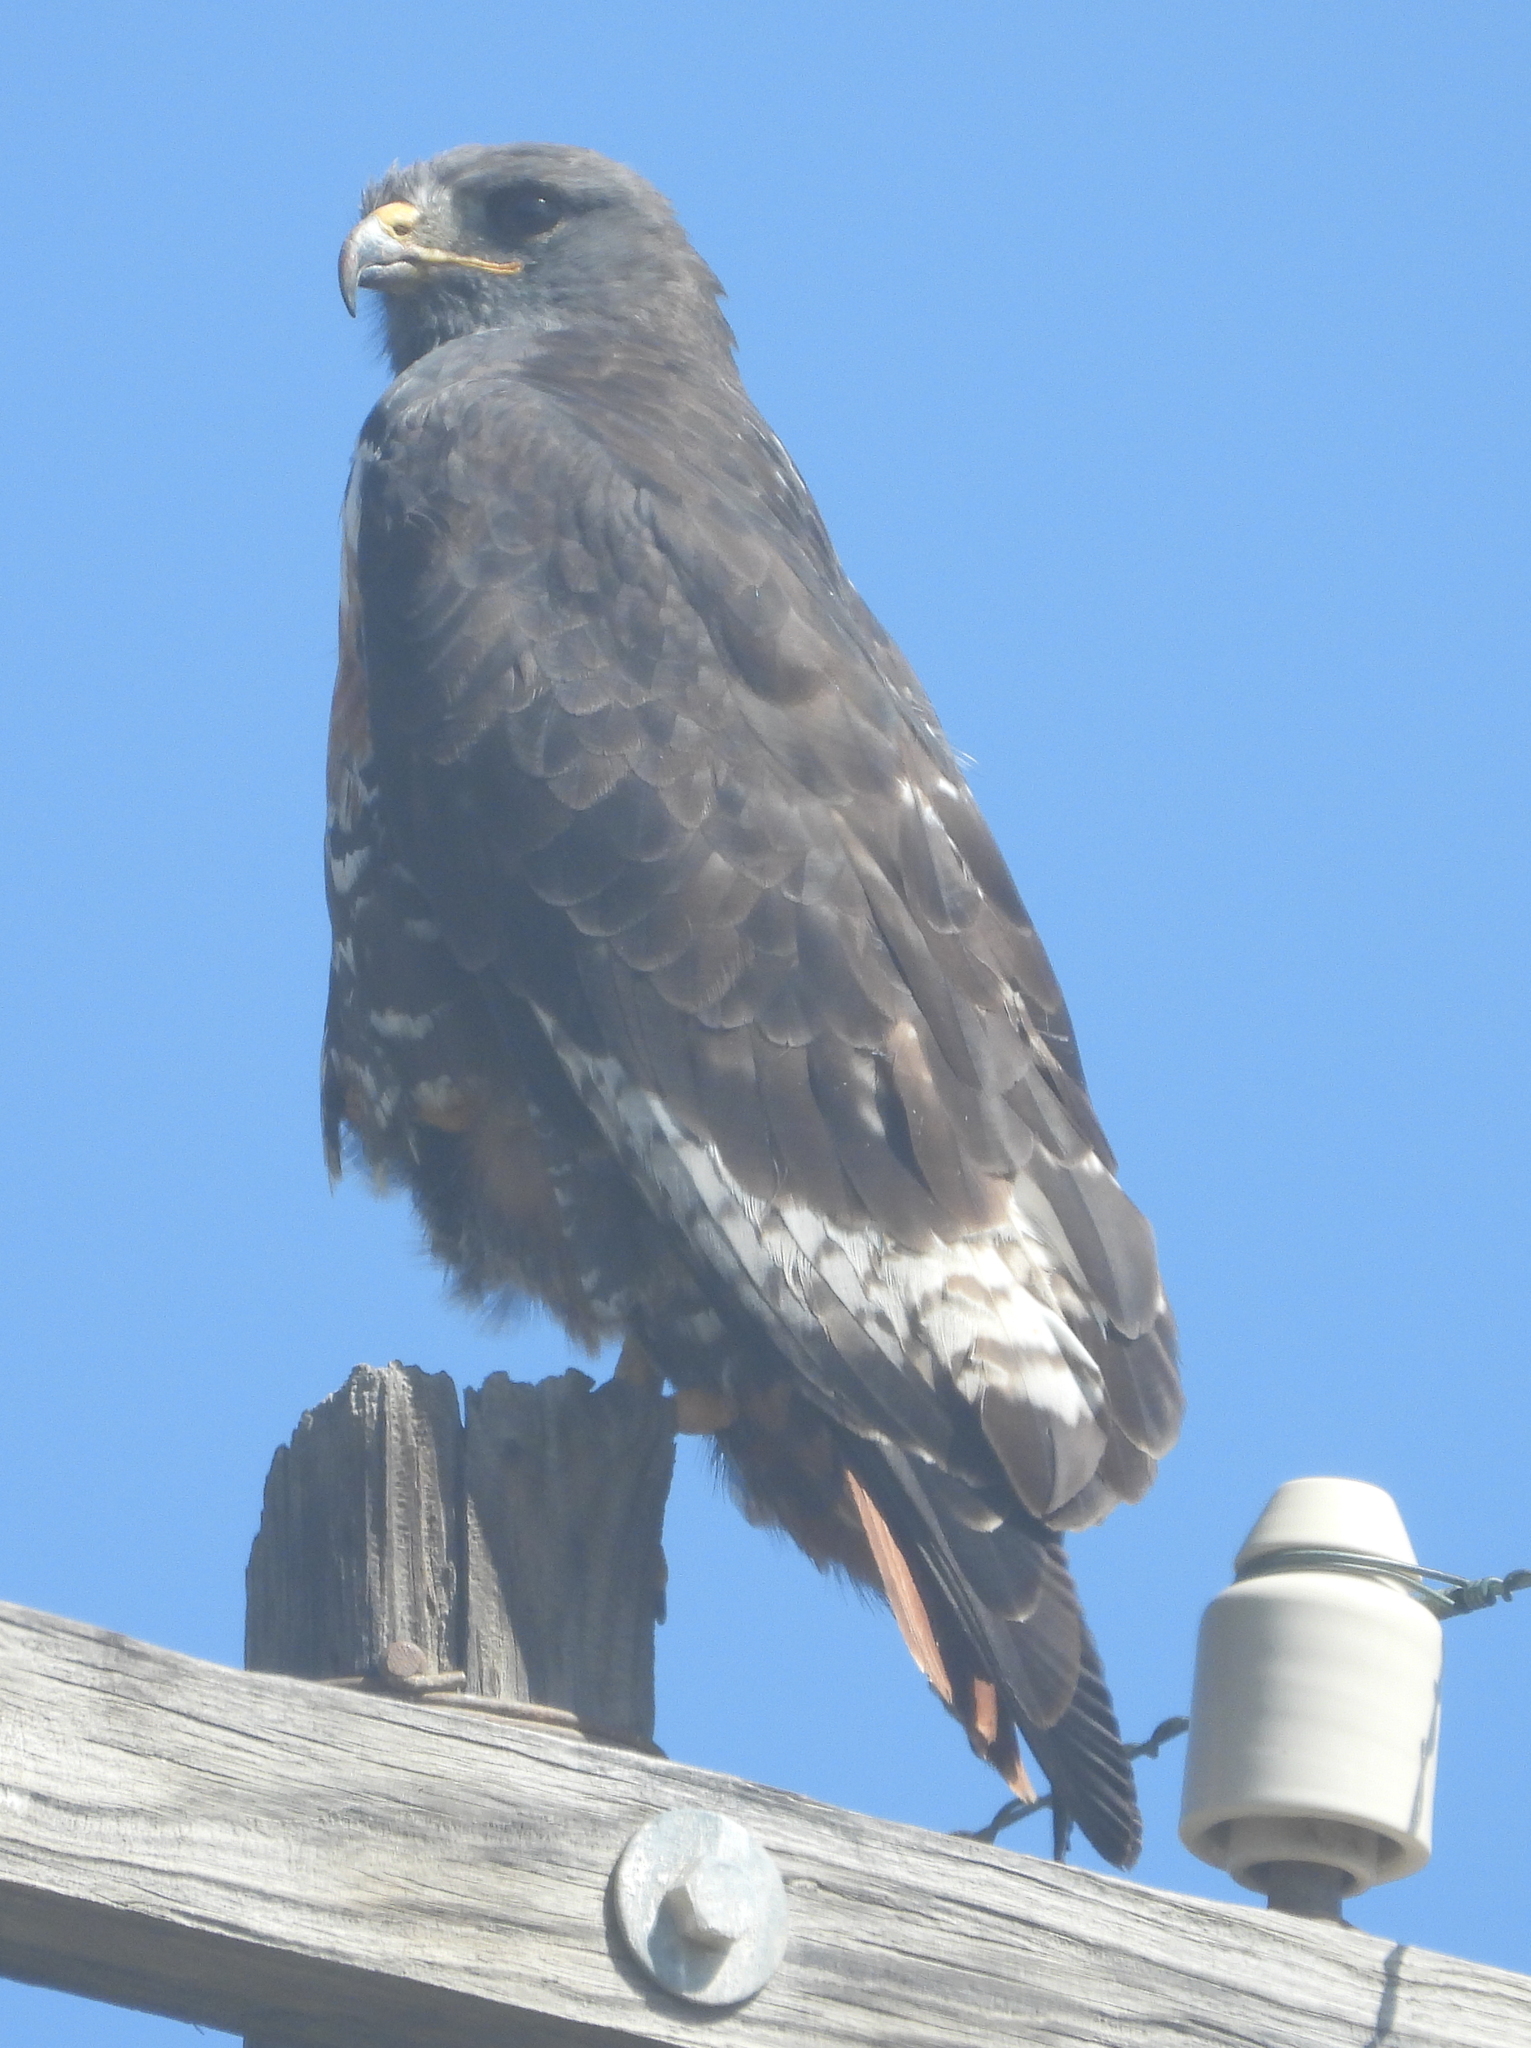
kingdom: Animalia
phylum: Chordata
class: Aves
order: Accipitriformes
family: Accipitridae
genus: Buteo
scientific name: Buteo rufofuscus
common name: Jackal buzzard
